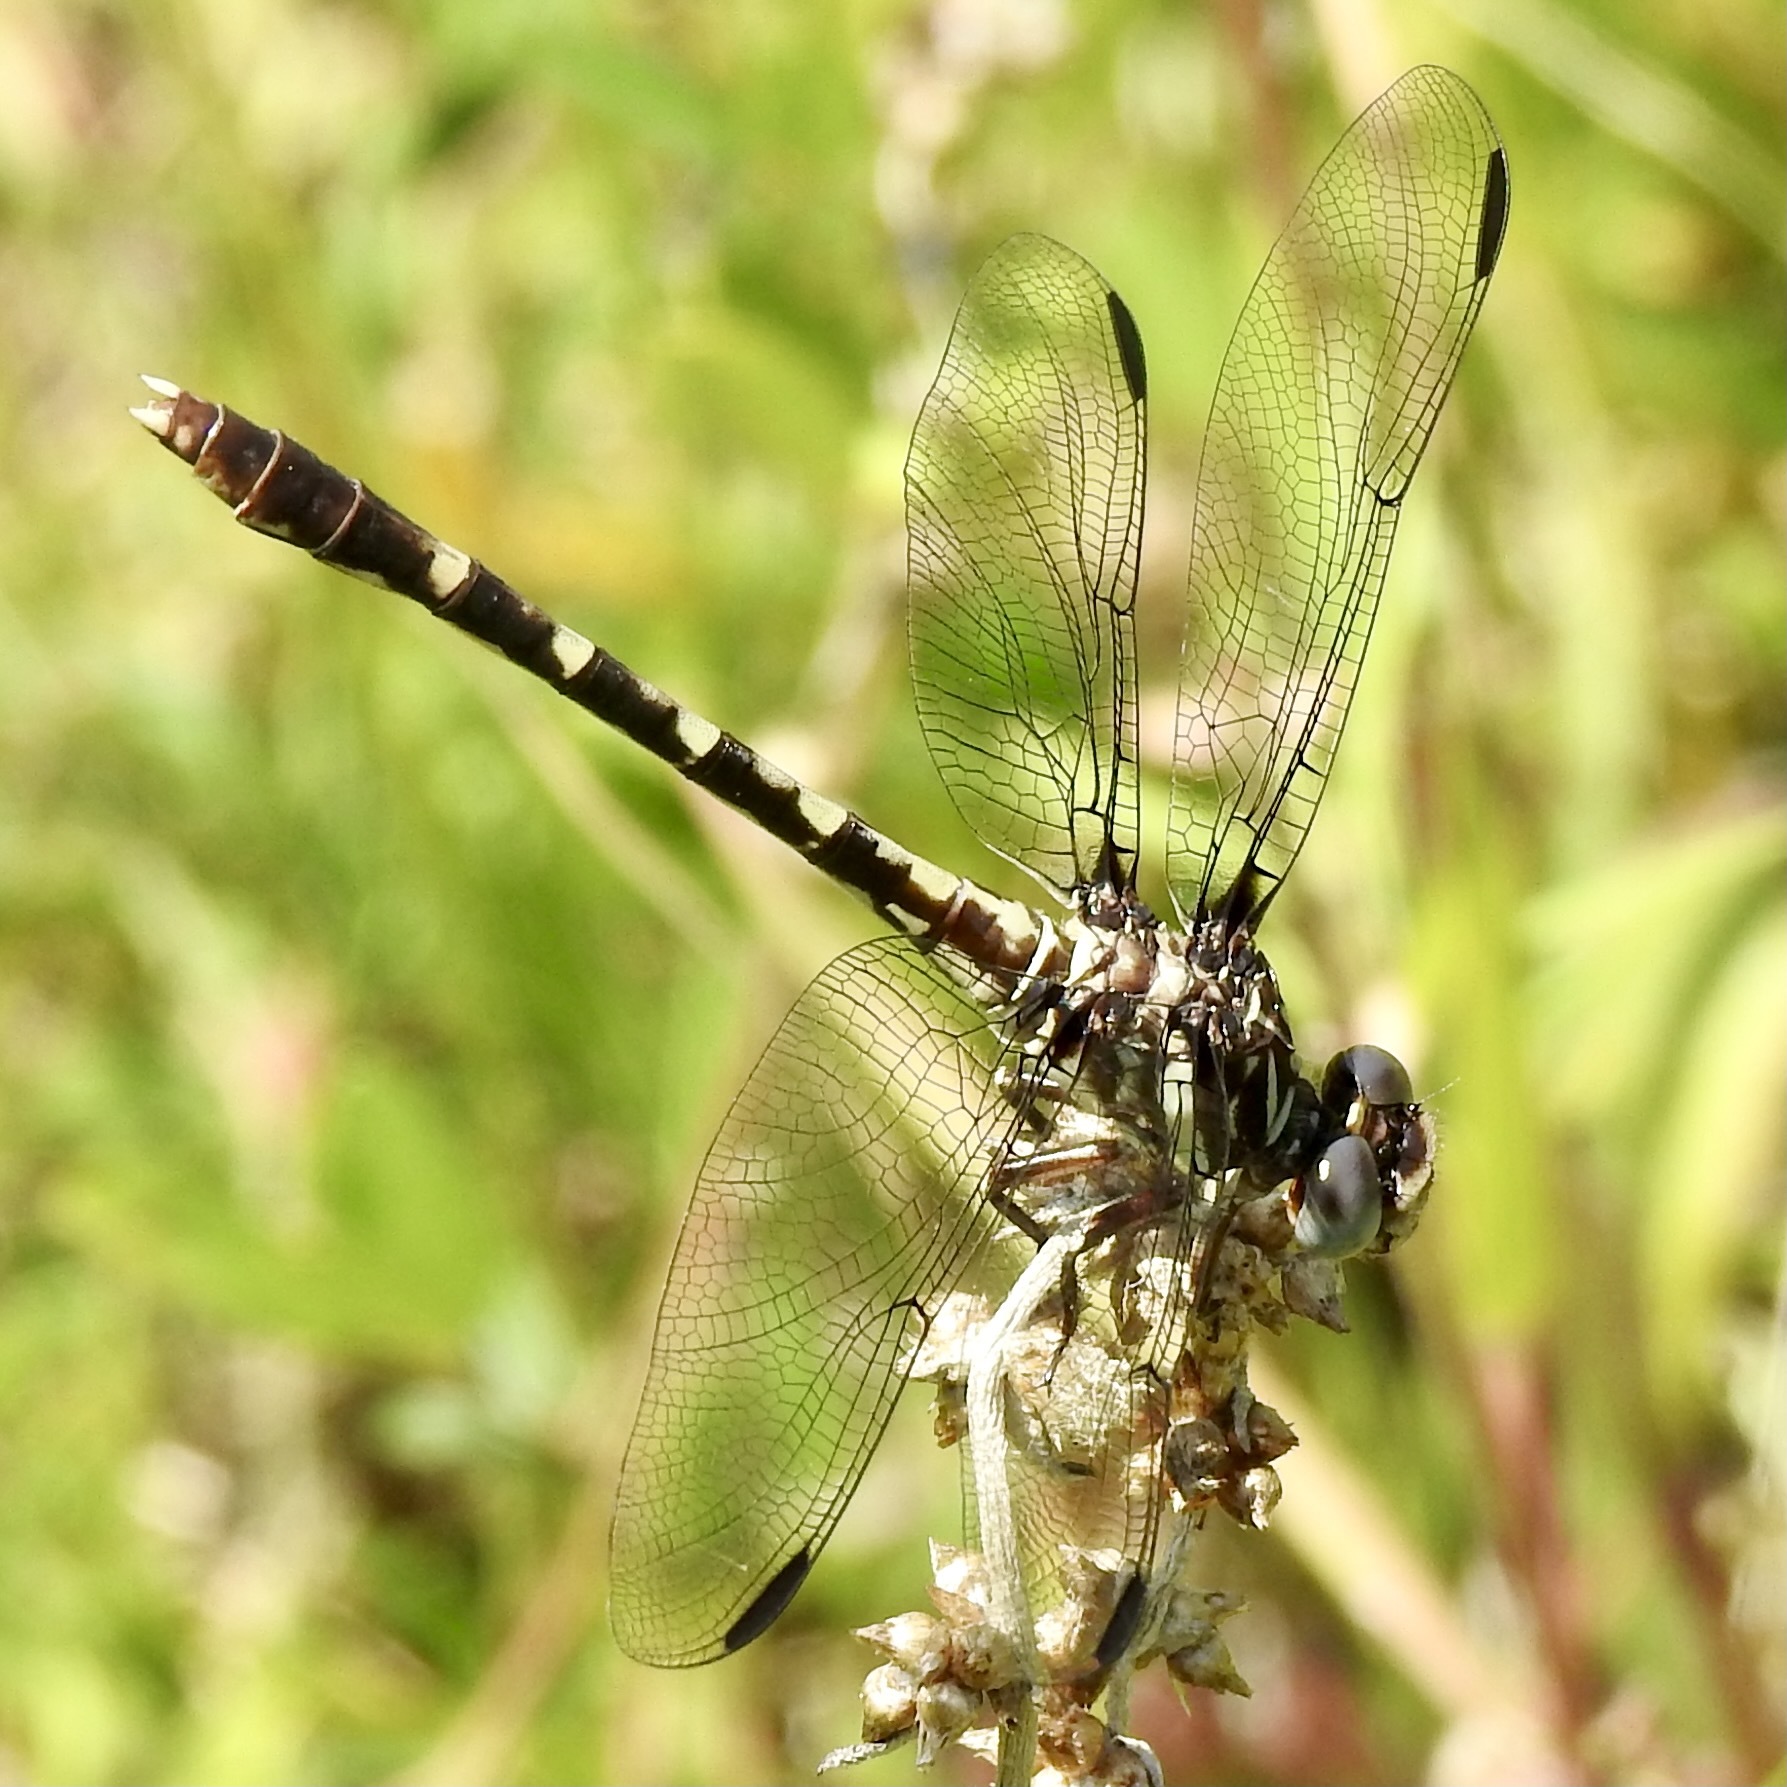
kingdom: Animalia
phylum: Arthropoda
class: Insecta
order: Odonata
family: Gomphidae
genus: Progomphus
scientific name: Progomphus obscurus
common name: Common sanddragon
